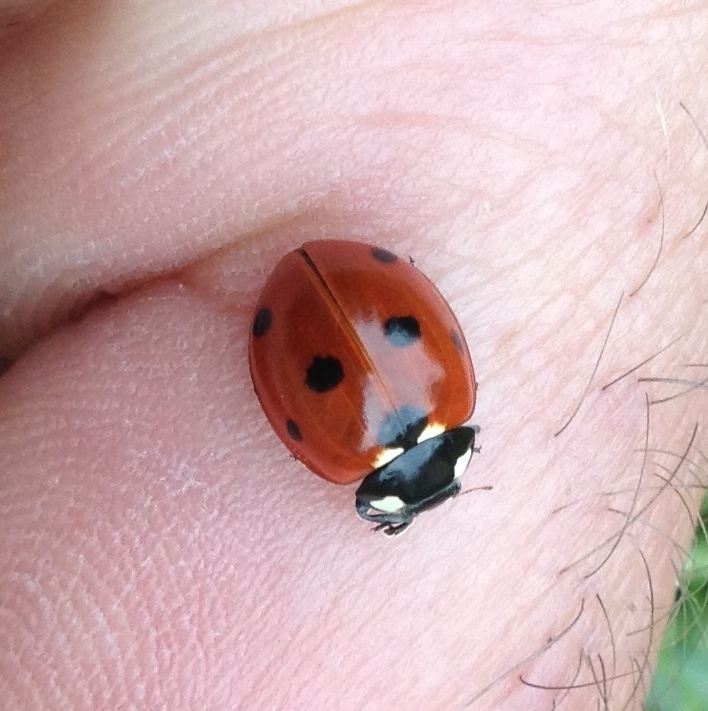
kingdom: Animalia
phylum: Arthropoda
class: Insecta
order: Coleoptera
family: Coccinellidae
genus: Coccinella
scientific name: Coccinella septempunctata
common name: Sevenspotted lady beetle
